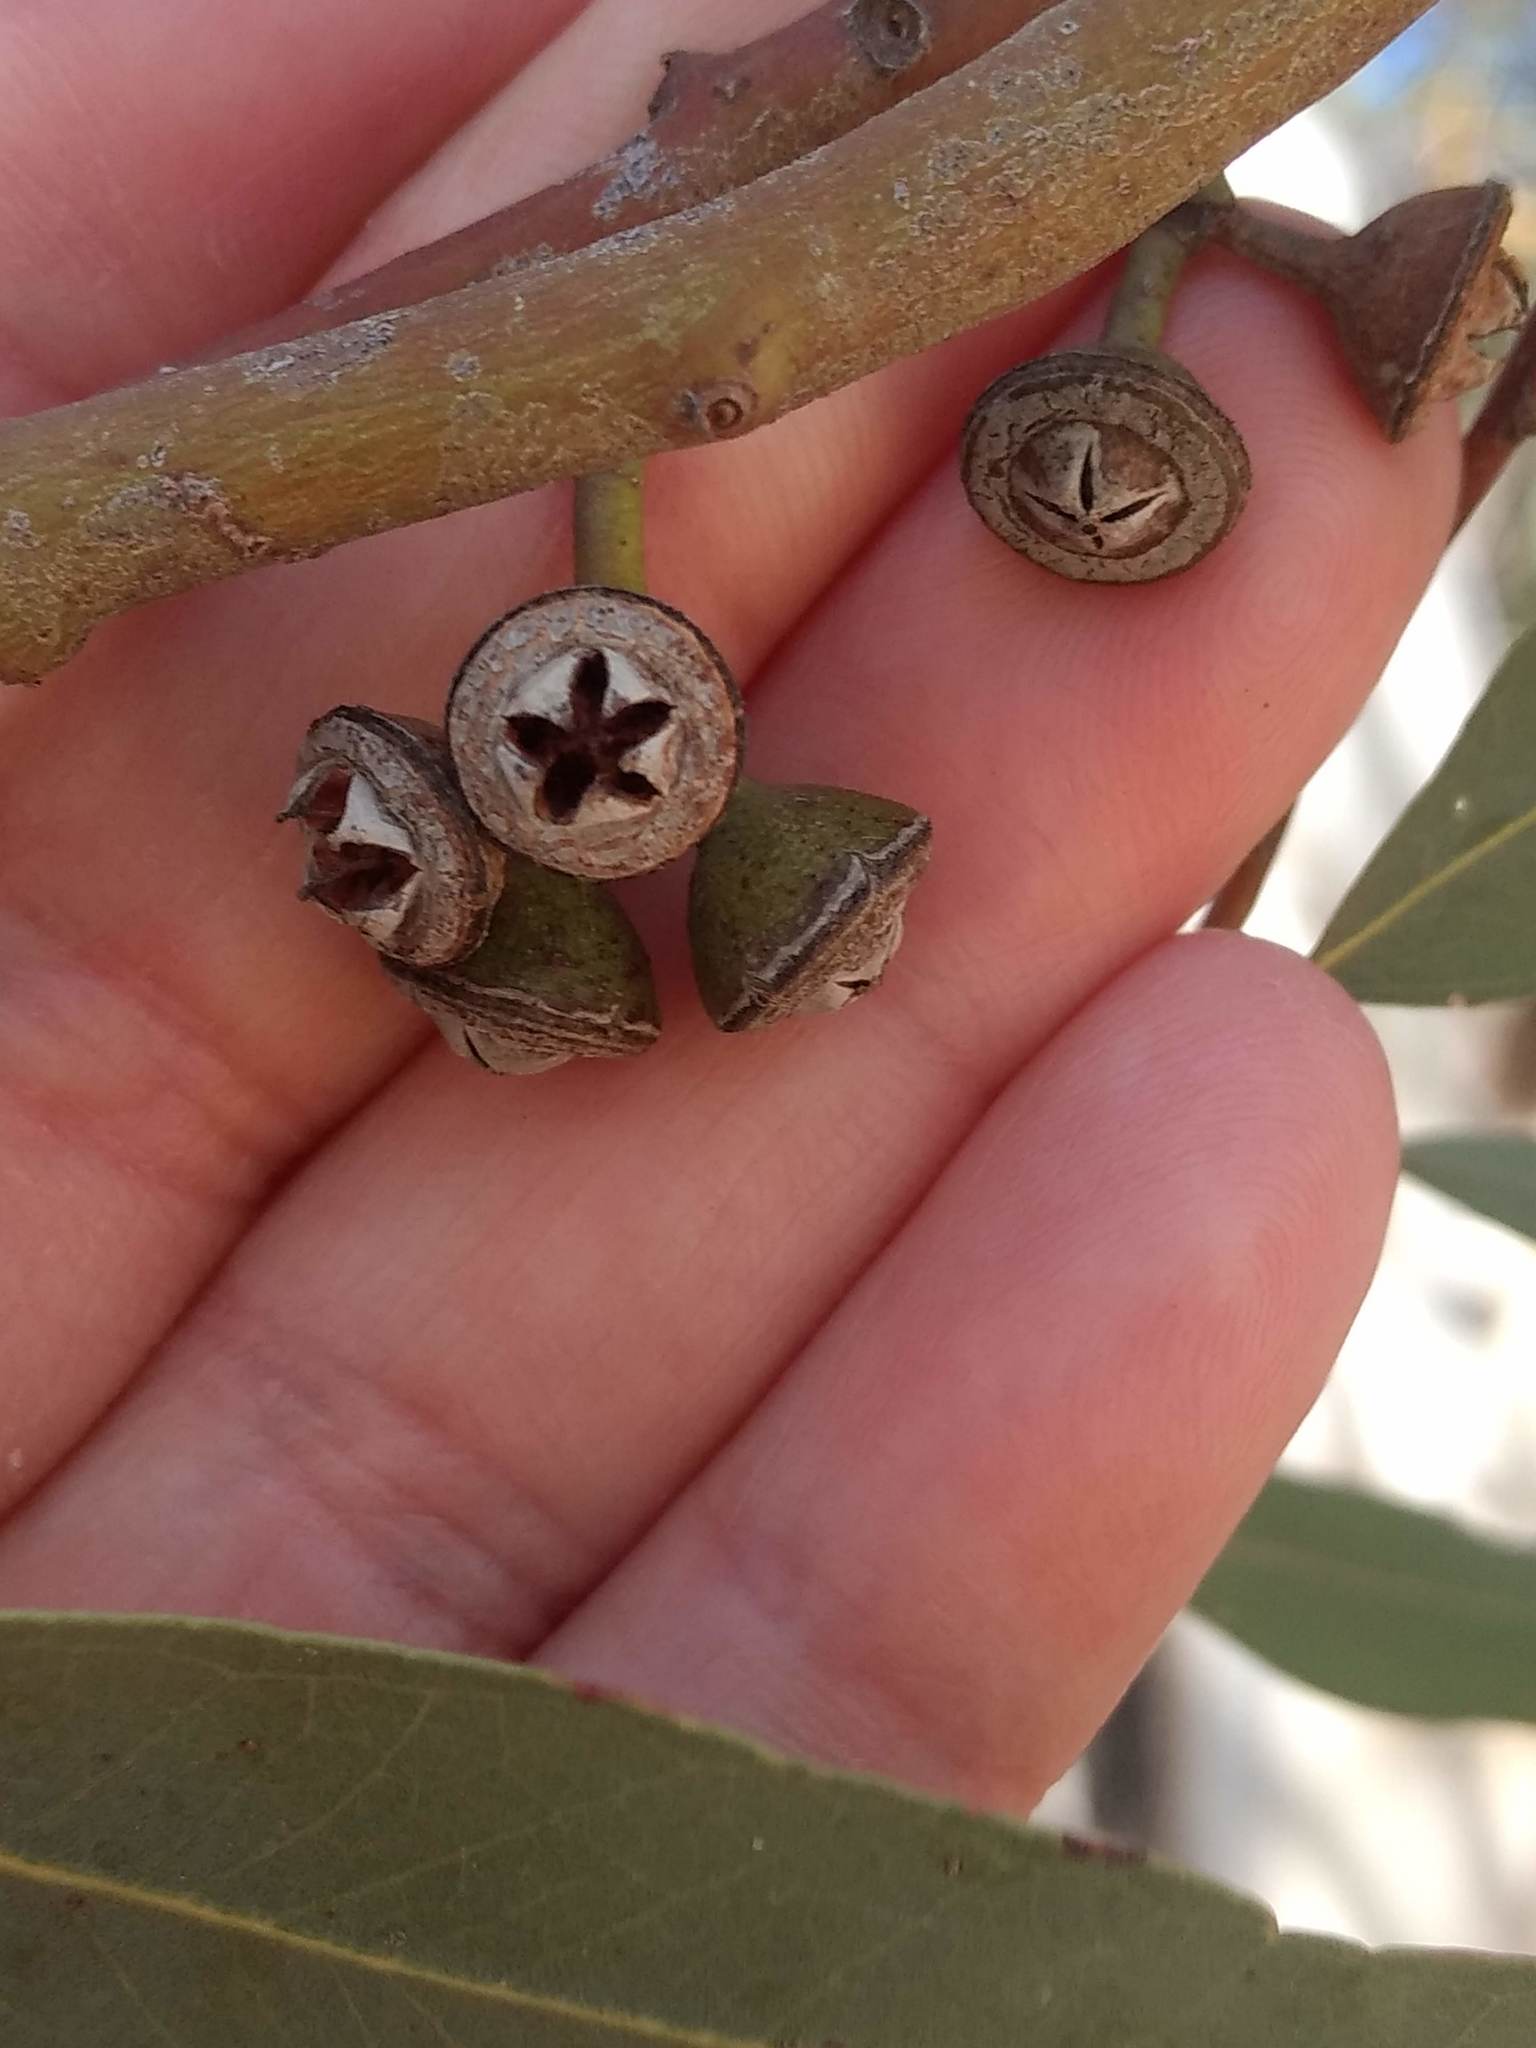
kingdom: Plantae
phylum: Tracheophyta
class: Magnoliopsida
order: Myrtales
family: Myrtaceae
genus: Eucalyptus
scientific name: Eucalyptus camaldulensis
